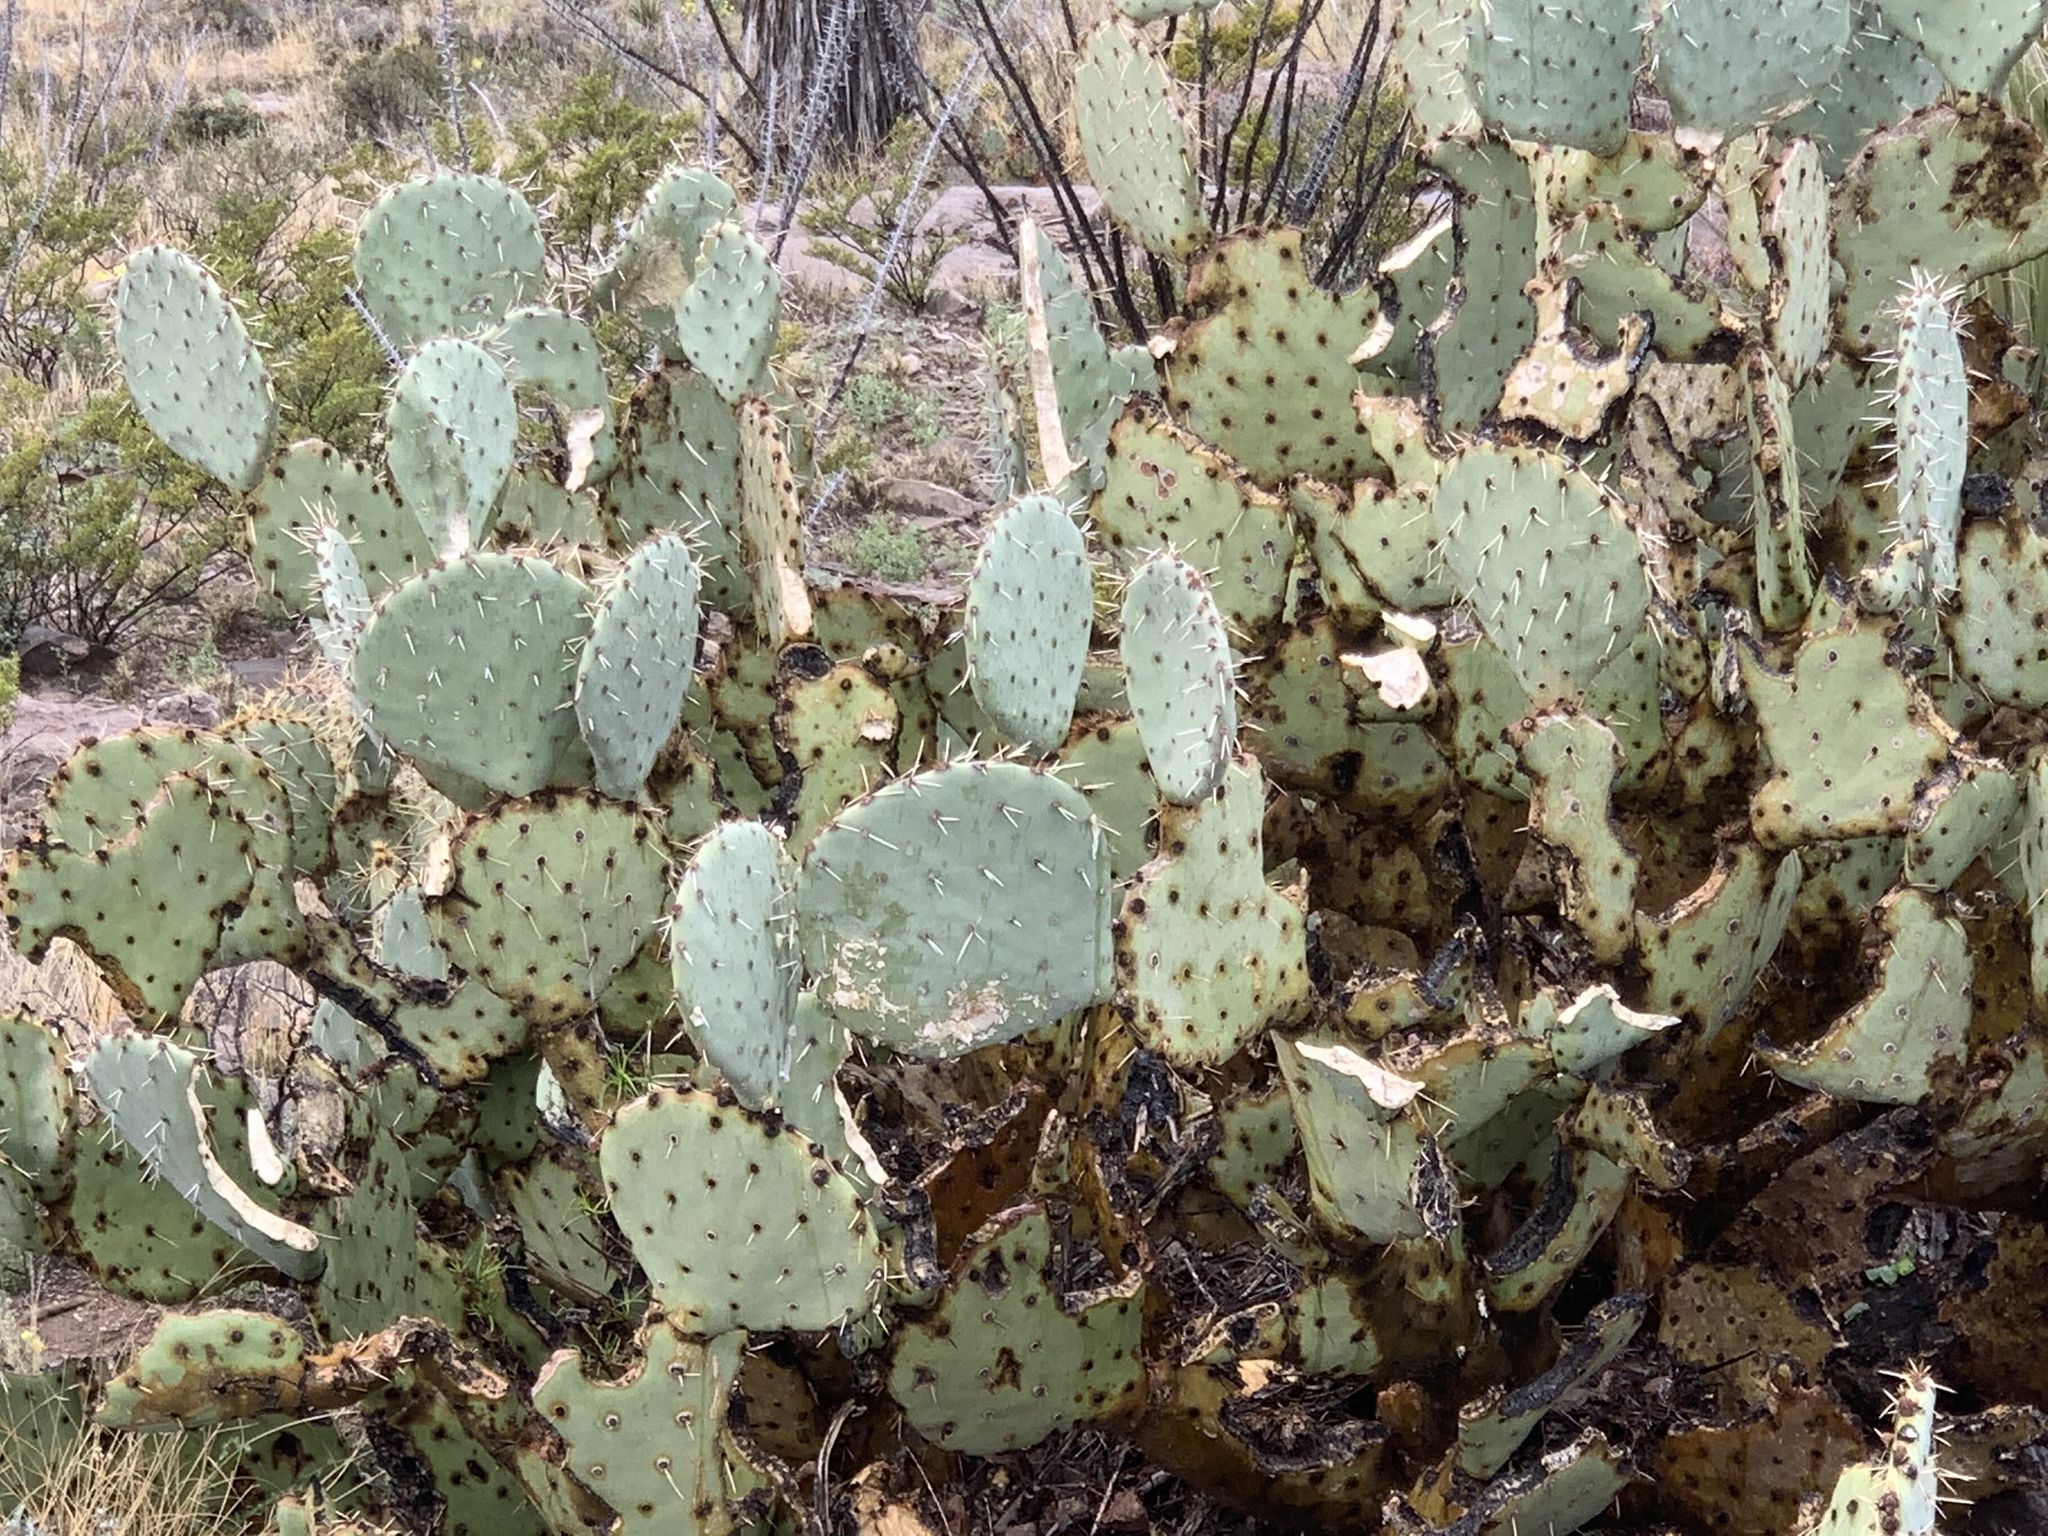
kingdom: Plantae
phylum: Tracheophyta
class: Magnoliopsida
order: Caryophyllales
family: Cactaceae
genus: Opuntia
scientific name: Opuntia engelmannii
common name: Cactus-apple
